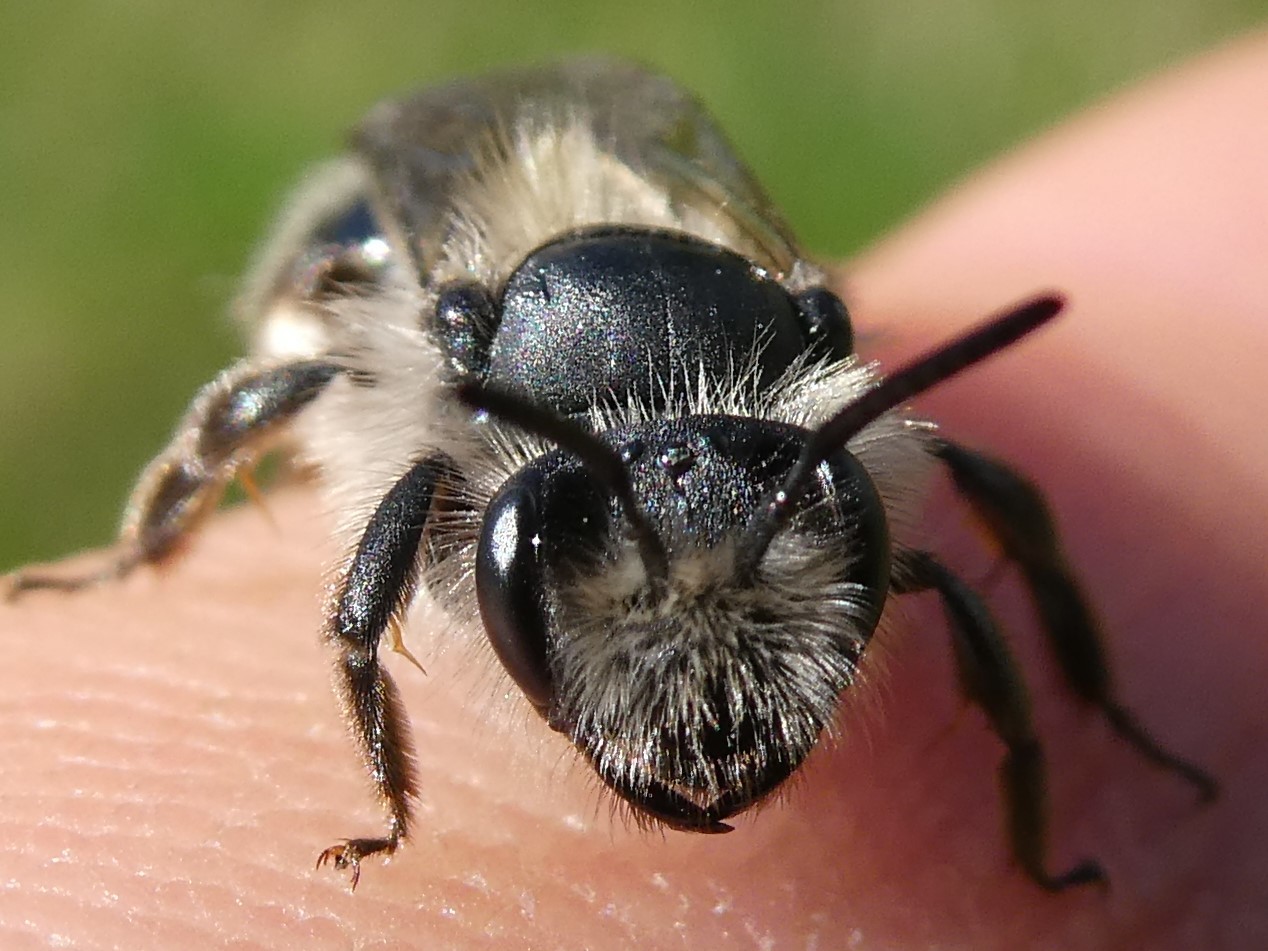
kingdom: Animalia
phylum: Arthropoda
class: Insecta
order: Hymenoptera
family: Andrenidae
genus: Andrena
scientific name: Andrena frigida
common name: Frigid mining bee
